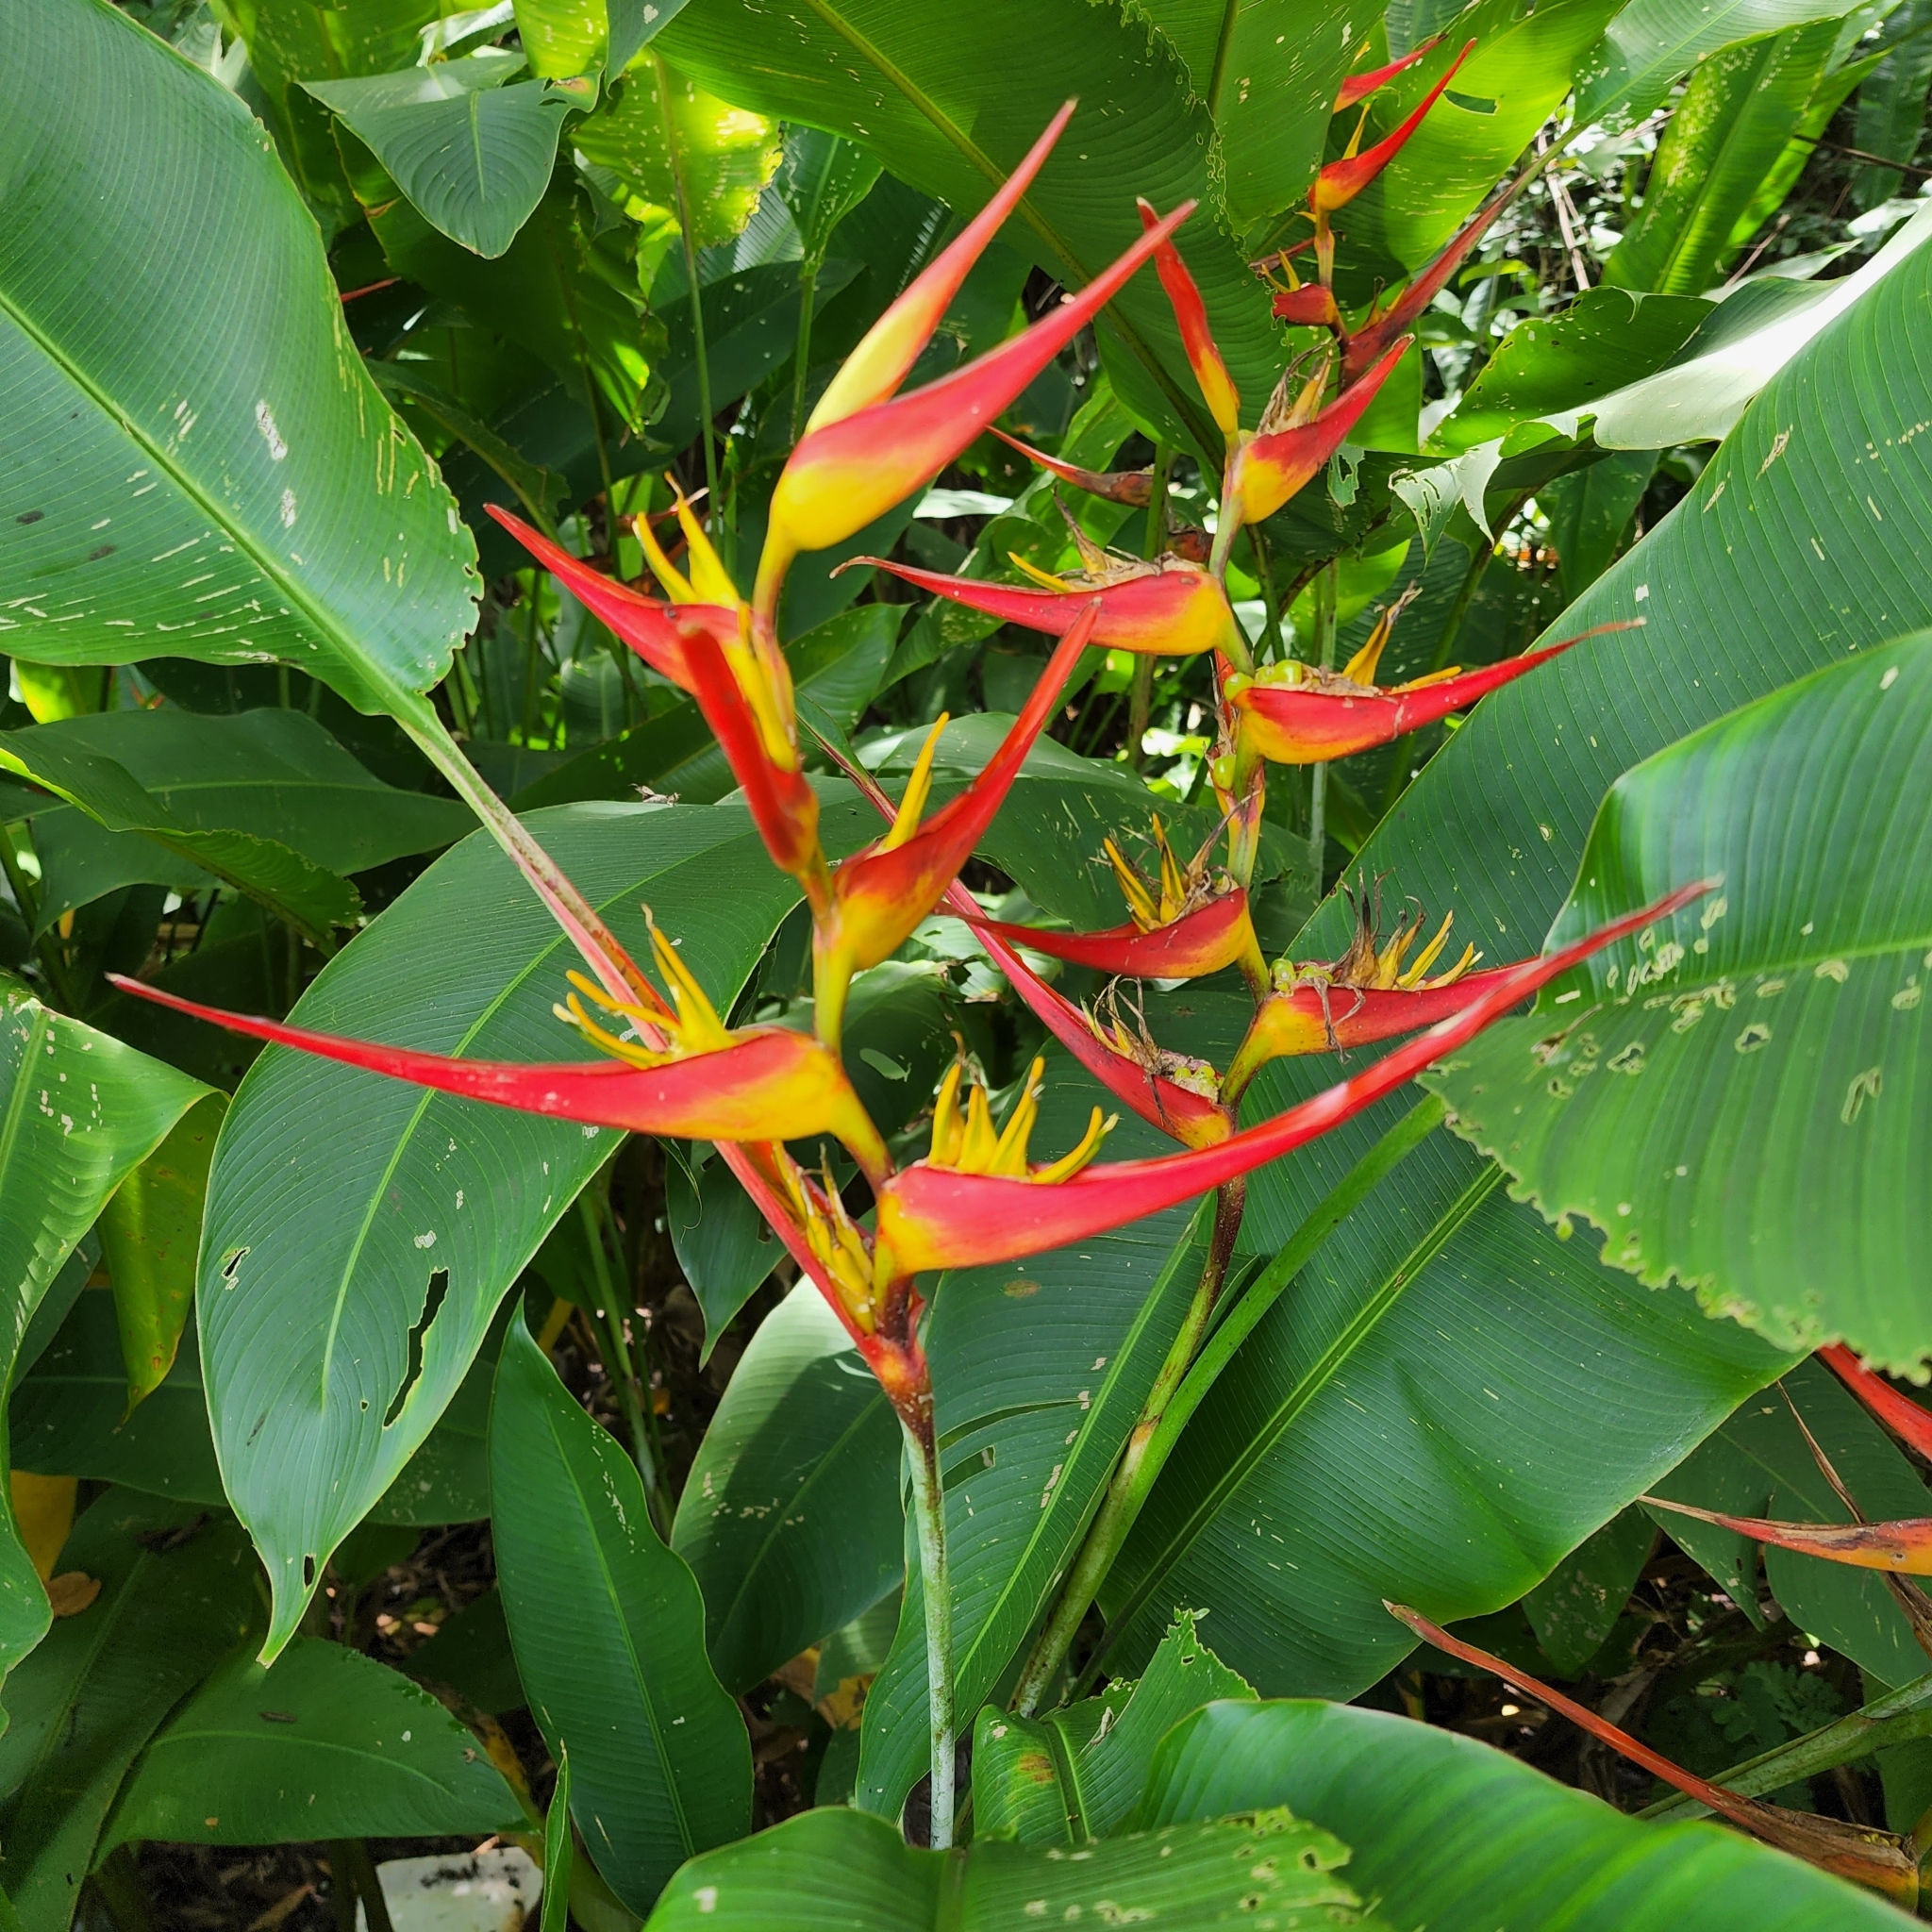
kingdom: Plantae
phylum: Tracheophyta
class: Liliopsida
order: Zingiberales
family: Heliconiaceae
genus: Heliconia
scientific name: Heliconia latispatha
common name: Expanded lobsterclaw
